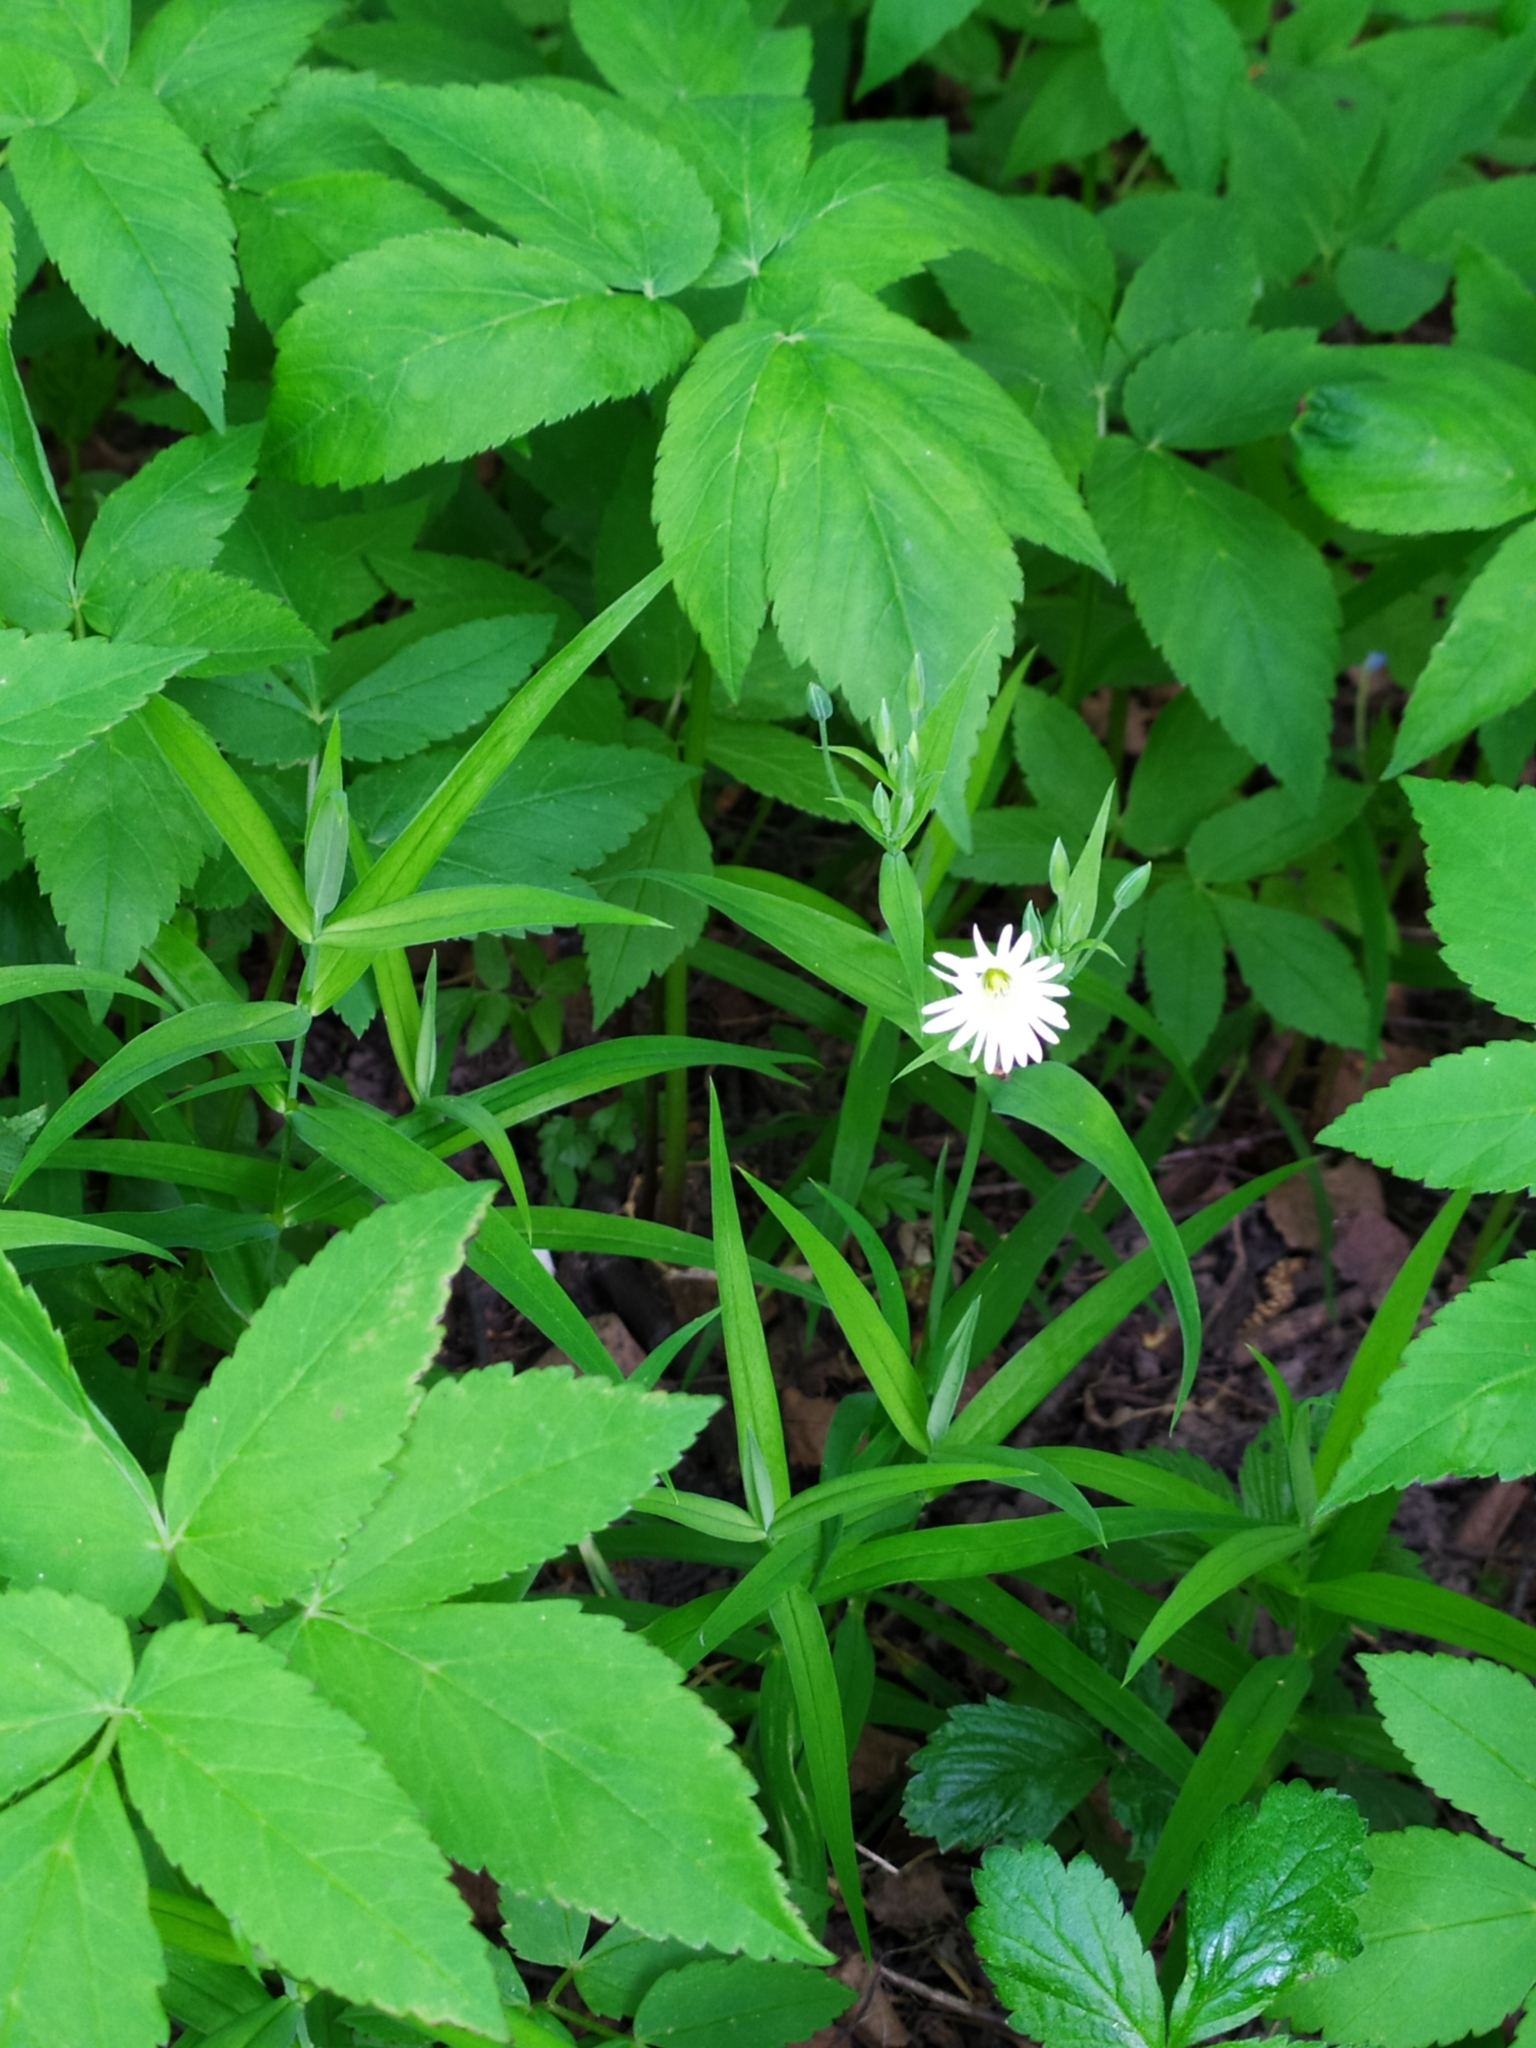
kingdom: Plantae
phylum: Tracheophyta
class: Magnoliopsida
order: Caryophyllales
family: Caryophyllaceae
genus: Rabelera
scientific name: Rabelera holostea
